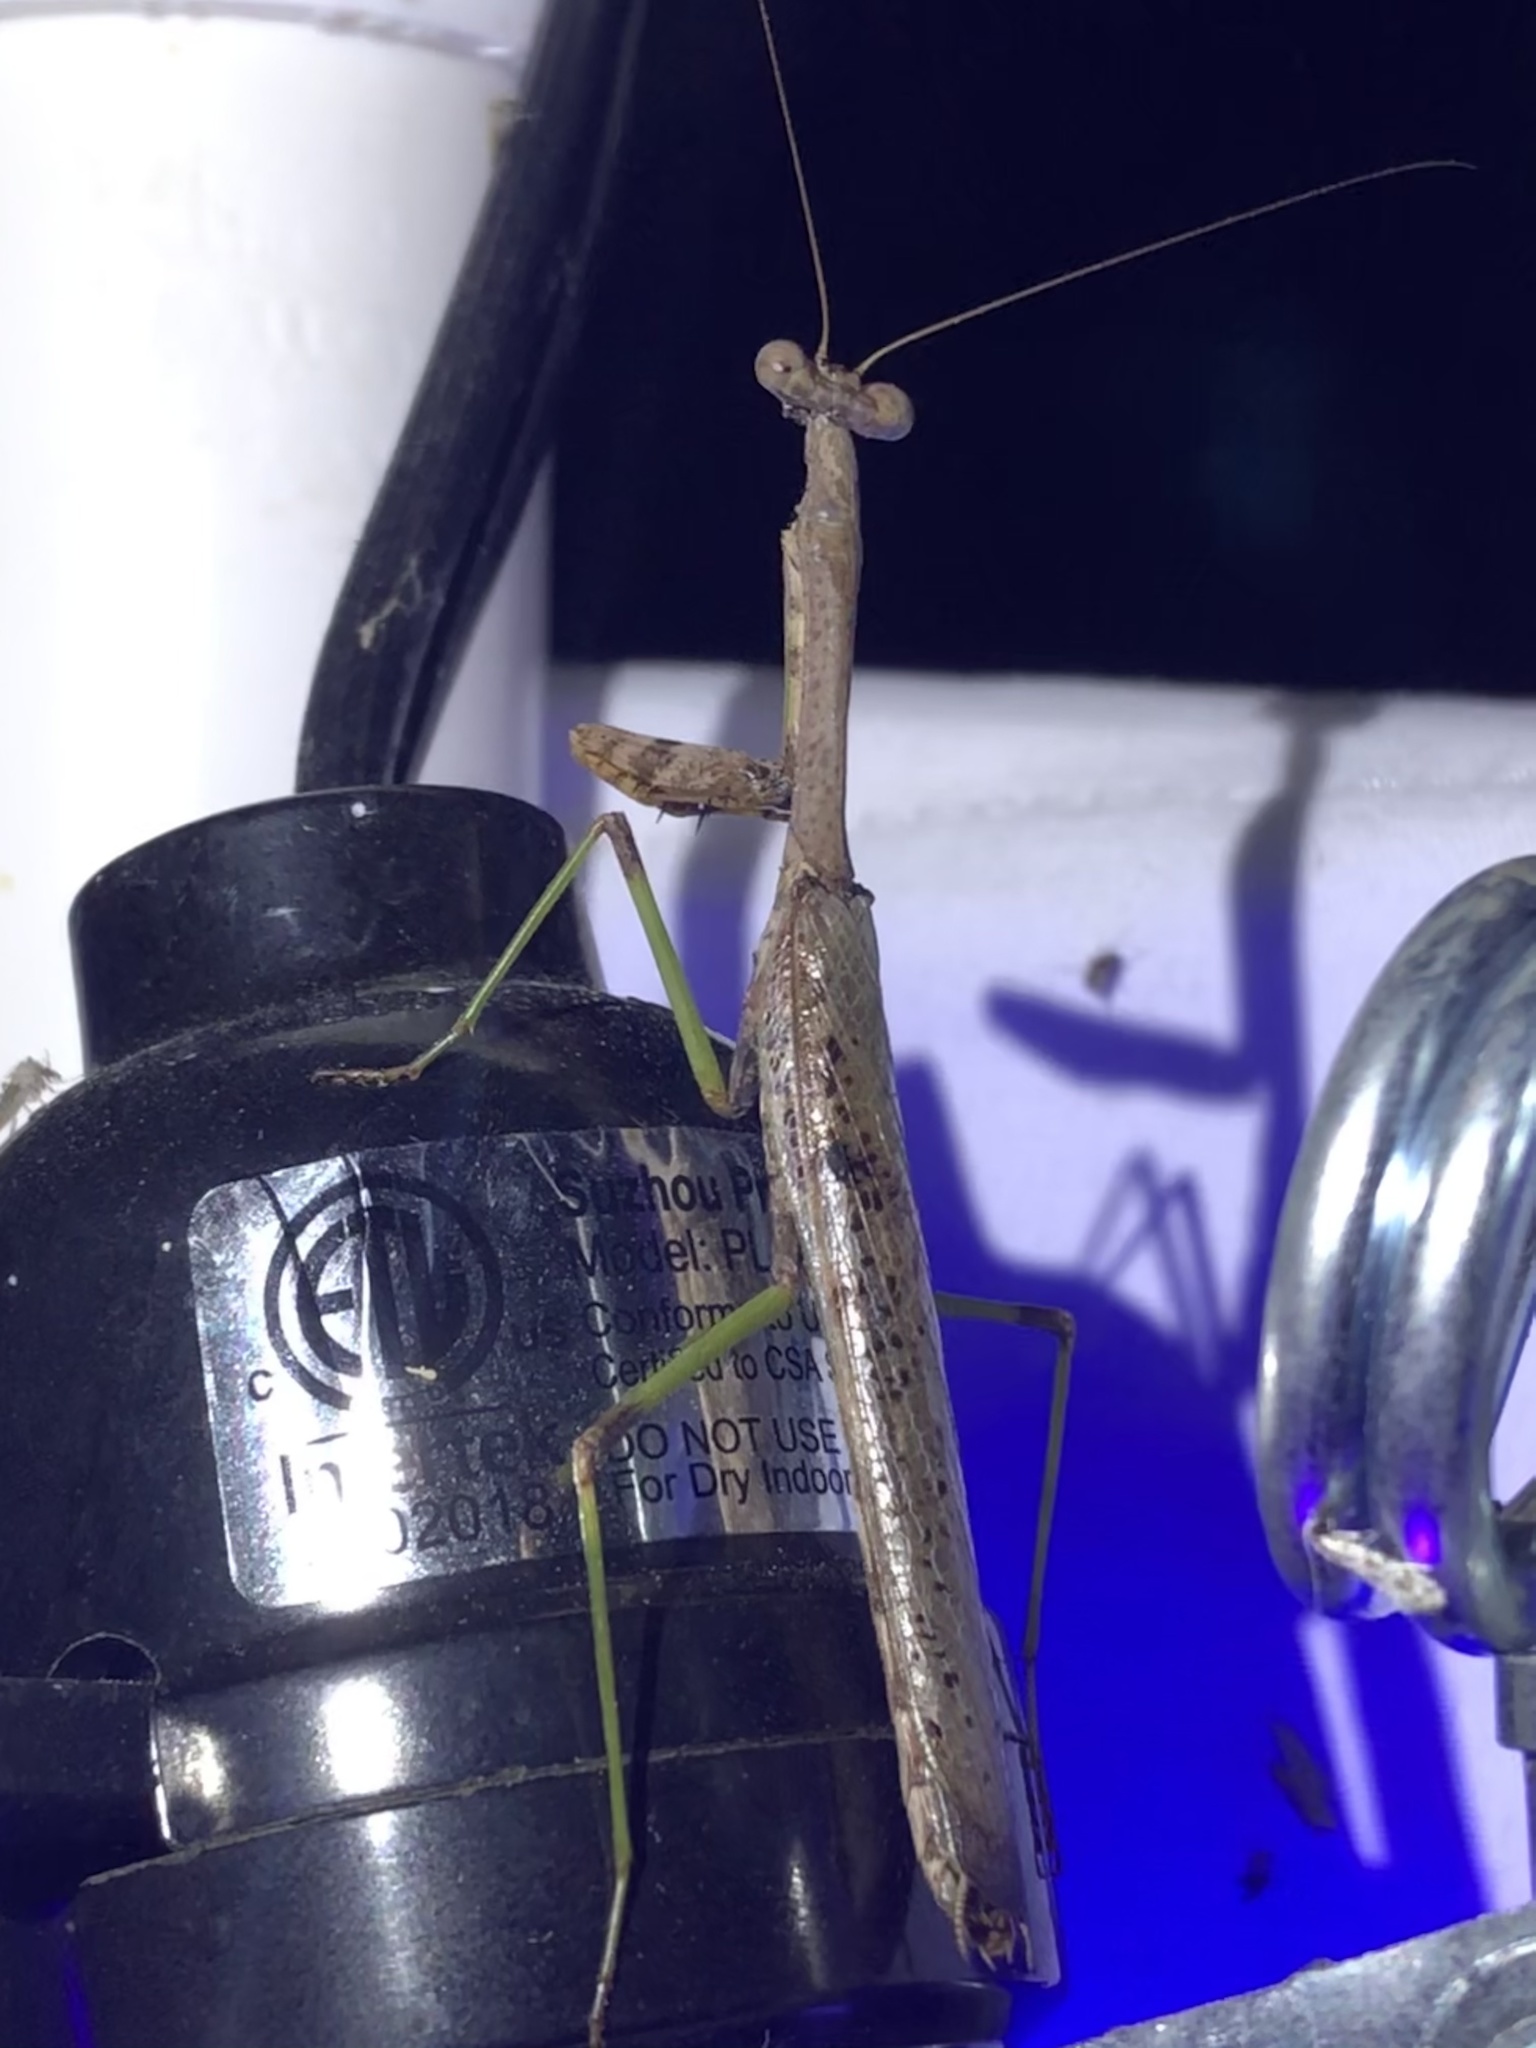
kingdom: Animalia
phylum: Arthropoda
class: Insecta
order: Mantodea
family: Mantidae
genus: Stagmomantis
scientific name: Stagmomantis resacae
